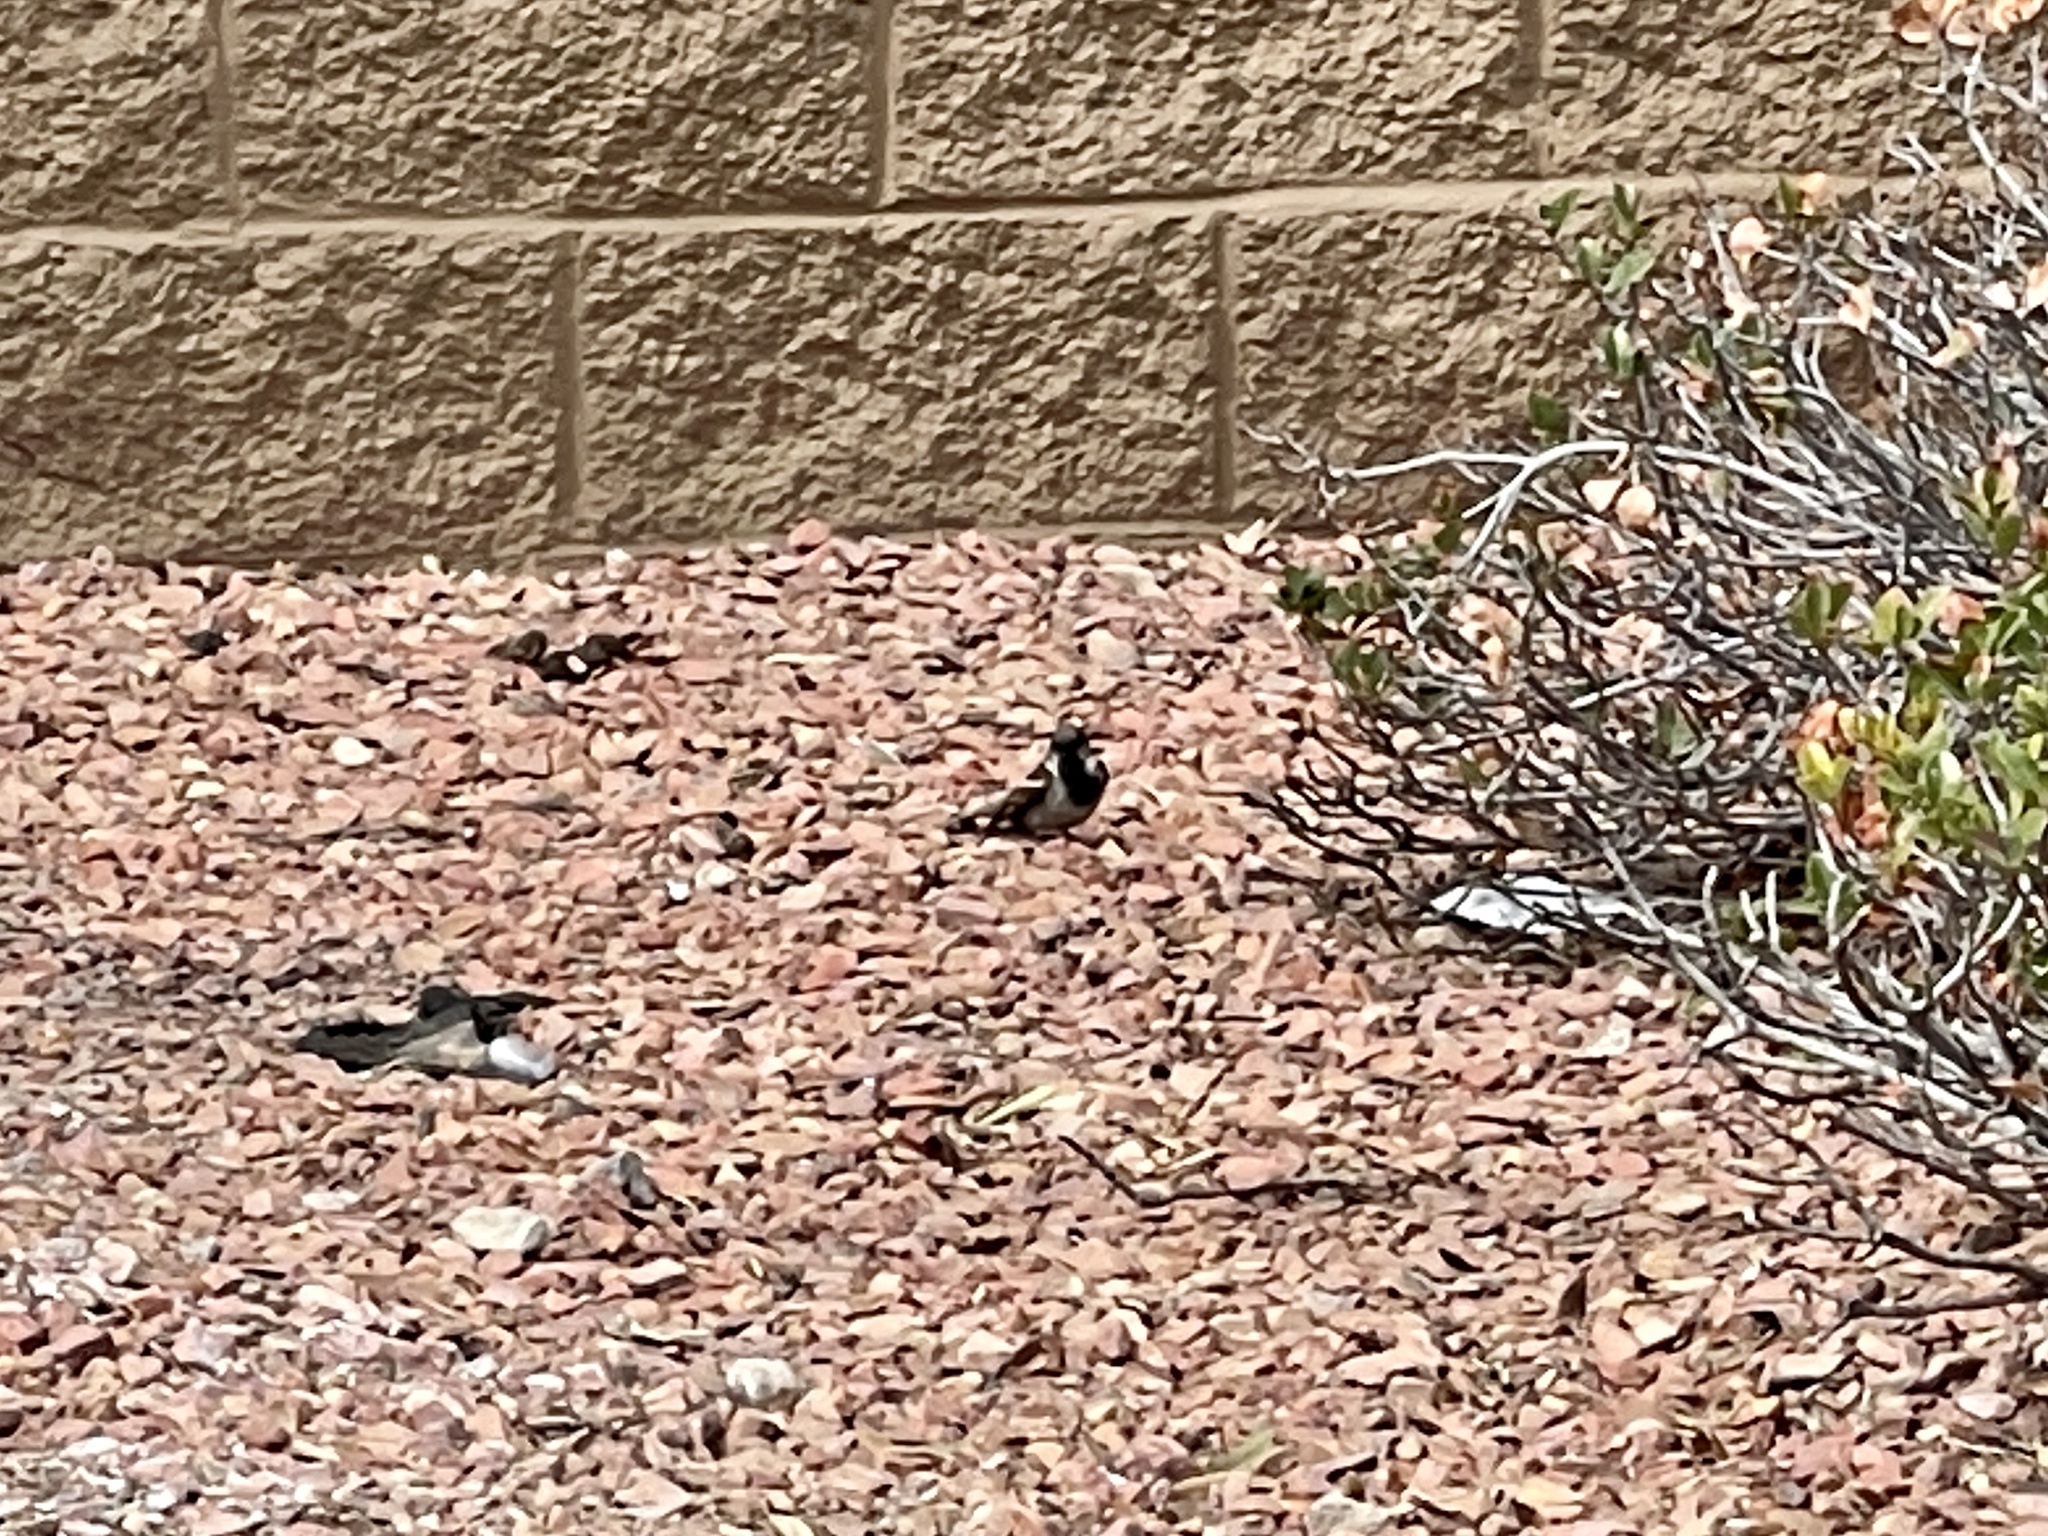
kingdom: Animalia
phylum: Chordata
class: Aves
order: Passeriformes
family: Passeridae
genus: Passer
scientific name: Passer domesticus
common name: House sparrow
